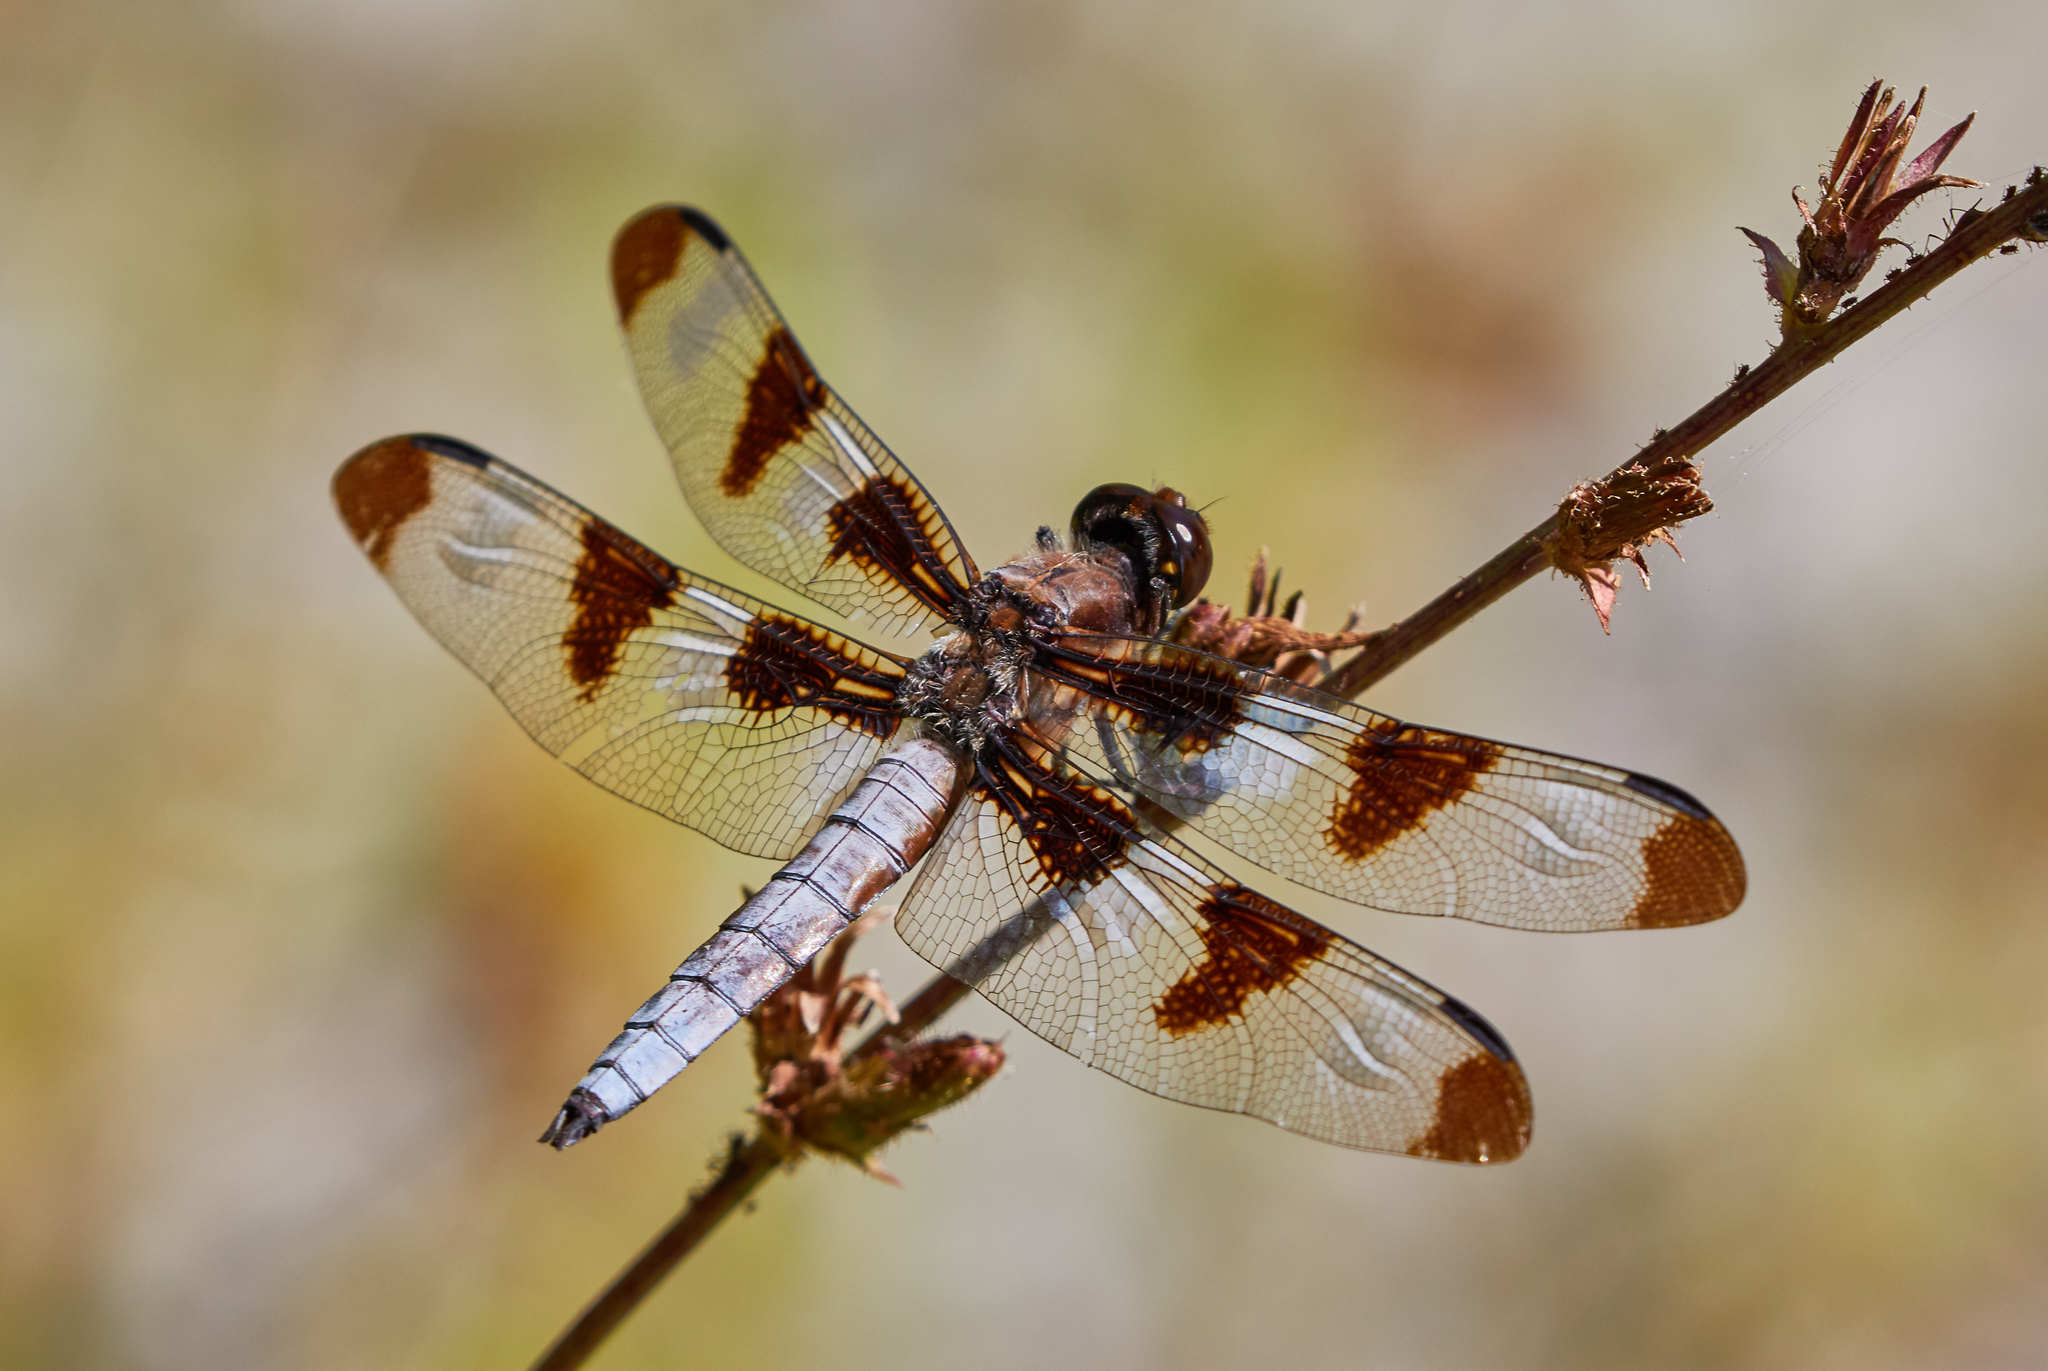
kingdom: Animalia
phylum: Arthropoda
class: Insecta
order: Odonata
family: Libellulidae
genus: Libellula
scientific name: Libellula pulchella
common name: Twelve-spotted skimmer
